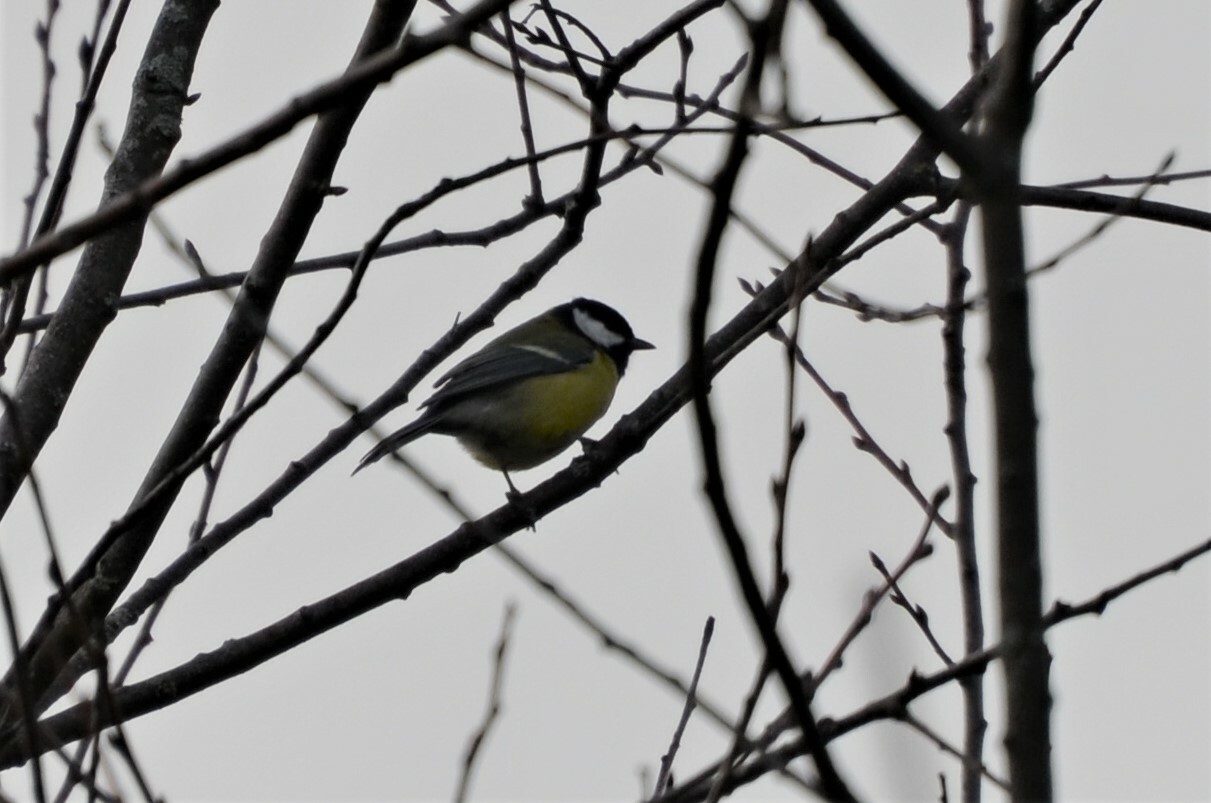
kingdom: Animalia
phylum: Chordata
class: Aves
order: Passeriformes
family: Paridae
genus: Parus
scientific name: Parus major
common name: Great tit
